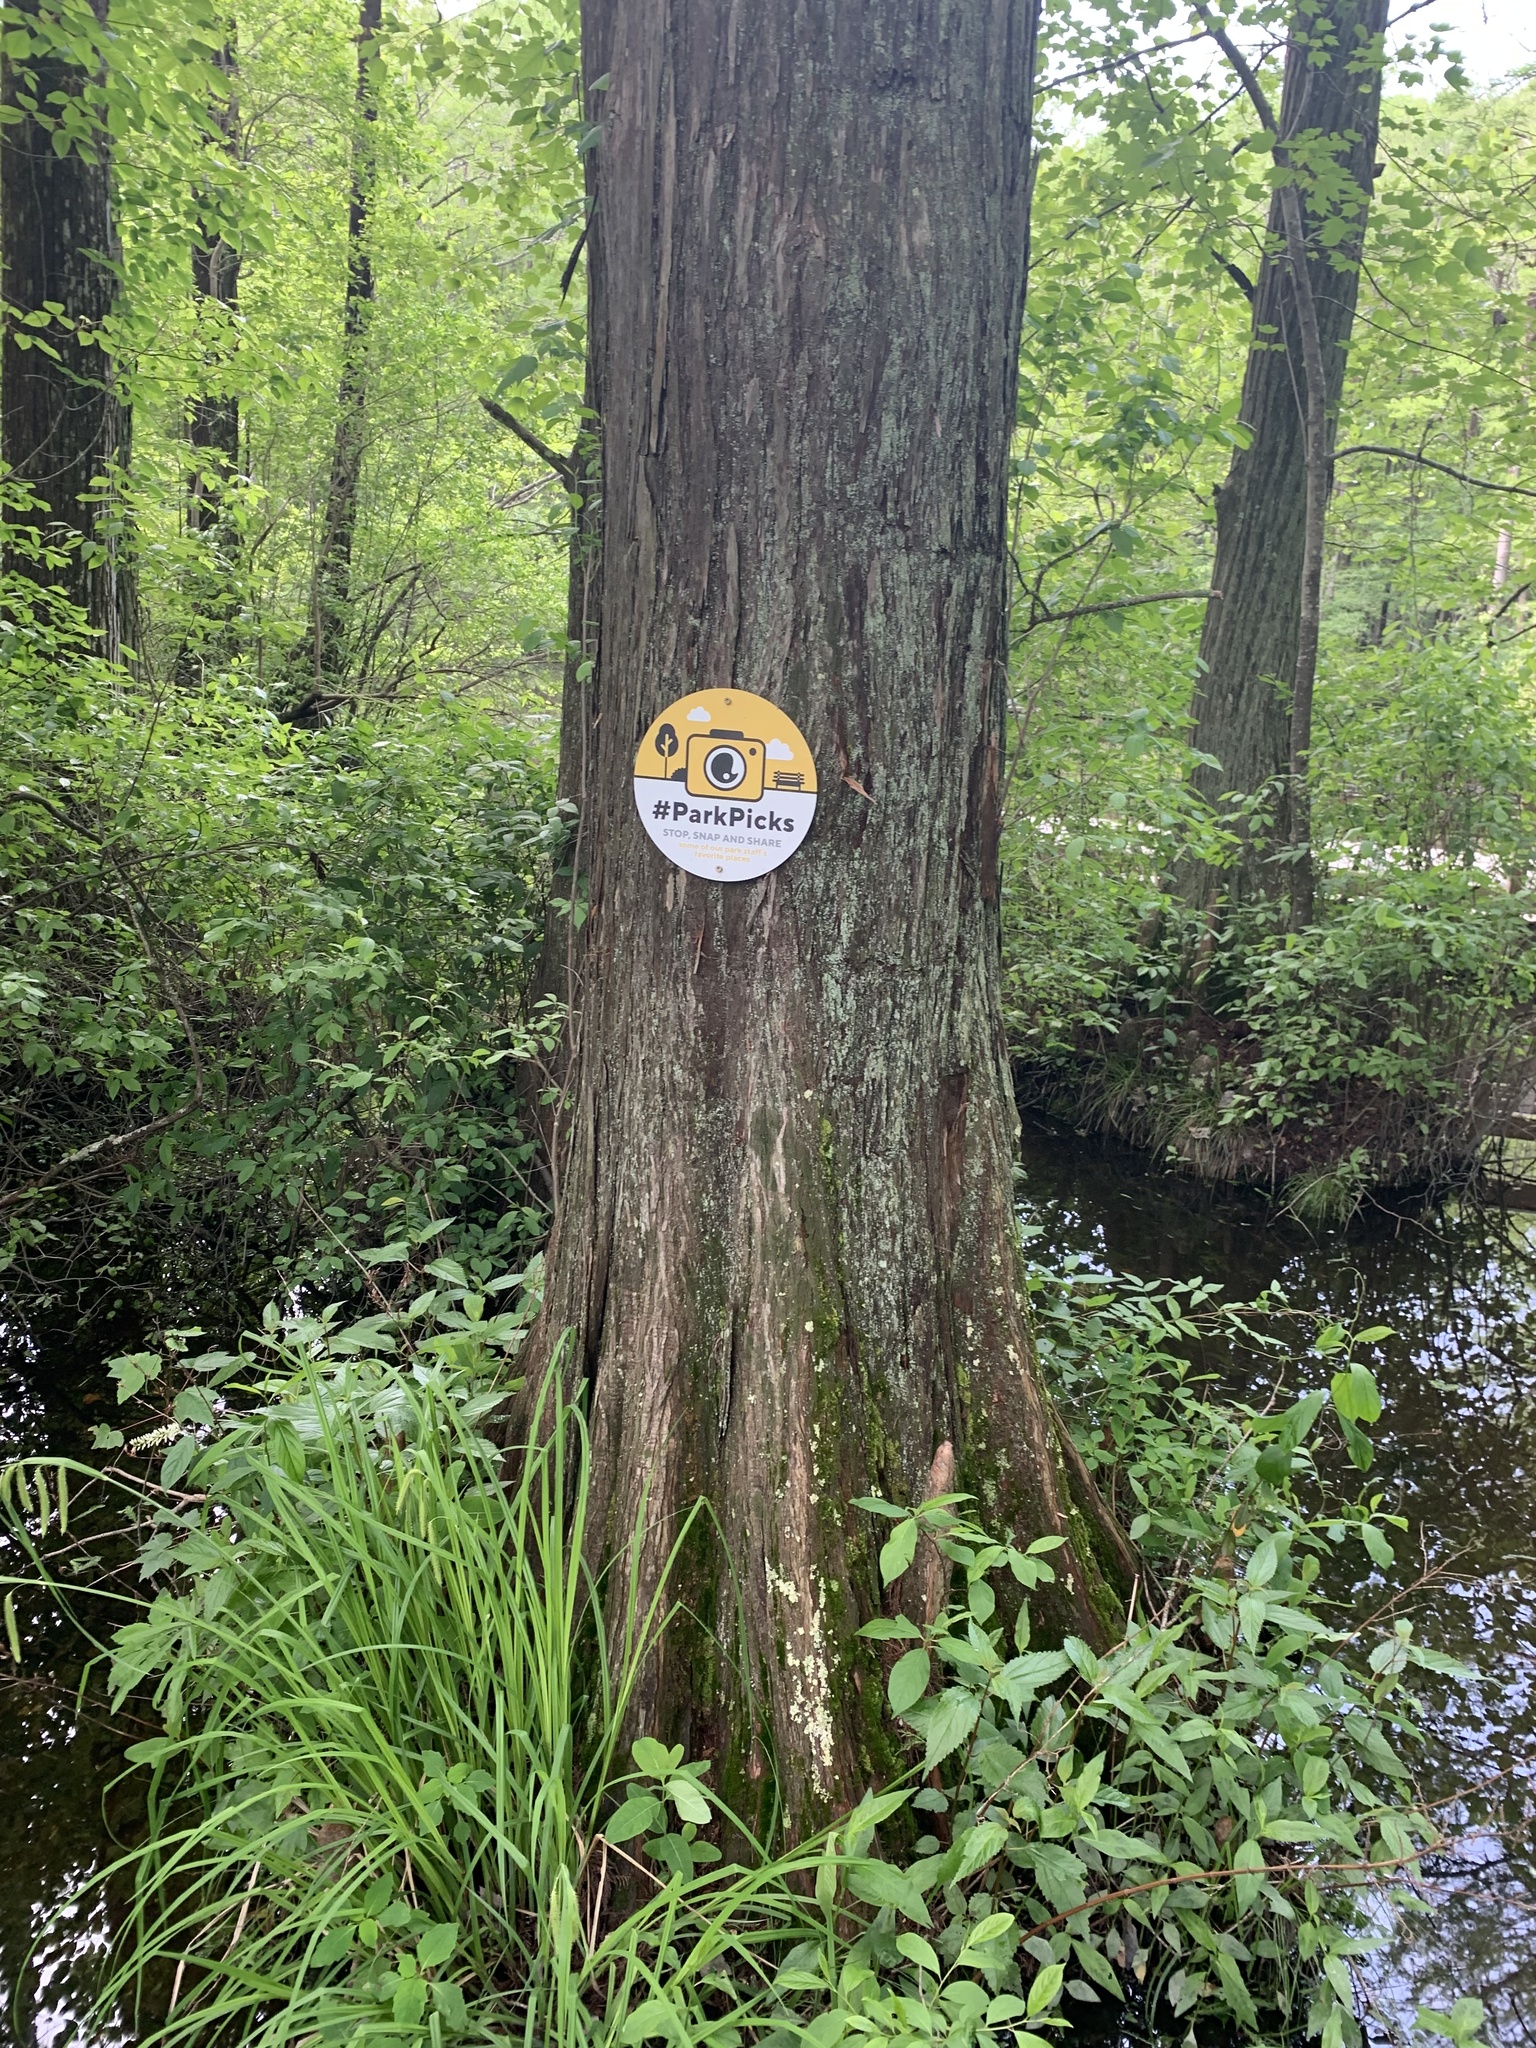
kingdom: Plantae
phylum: Tracheophyta
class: Pinopsida
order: Pinales
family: Cupressaceae
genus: Taxodium
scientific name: Taxodium distichum
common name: Bald cypress
